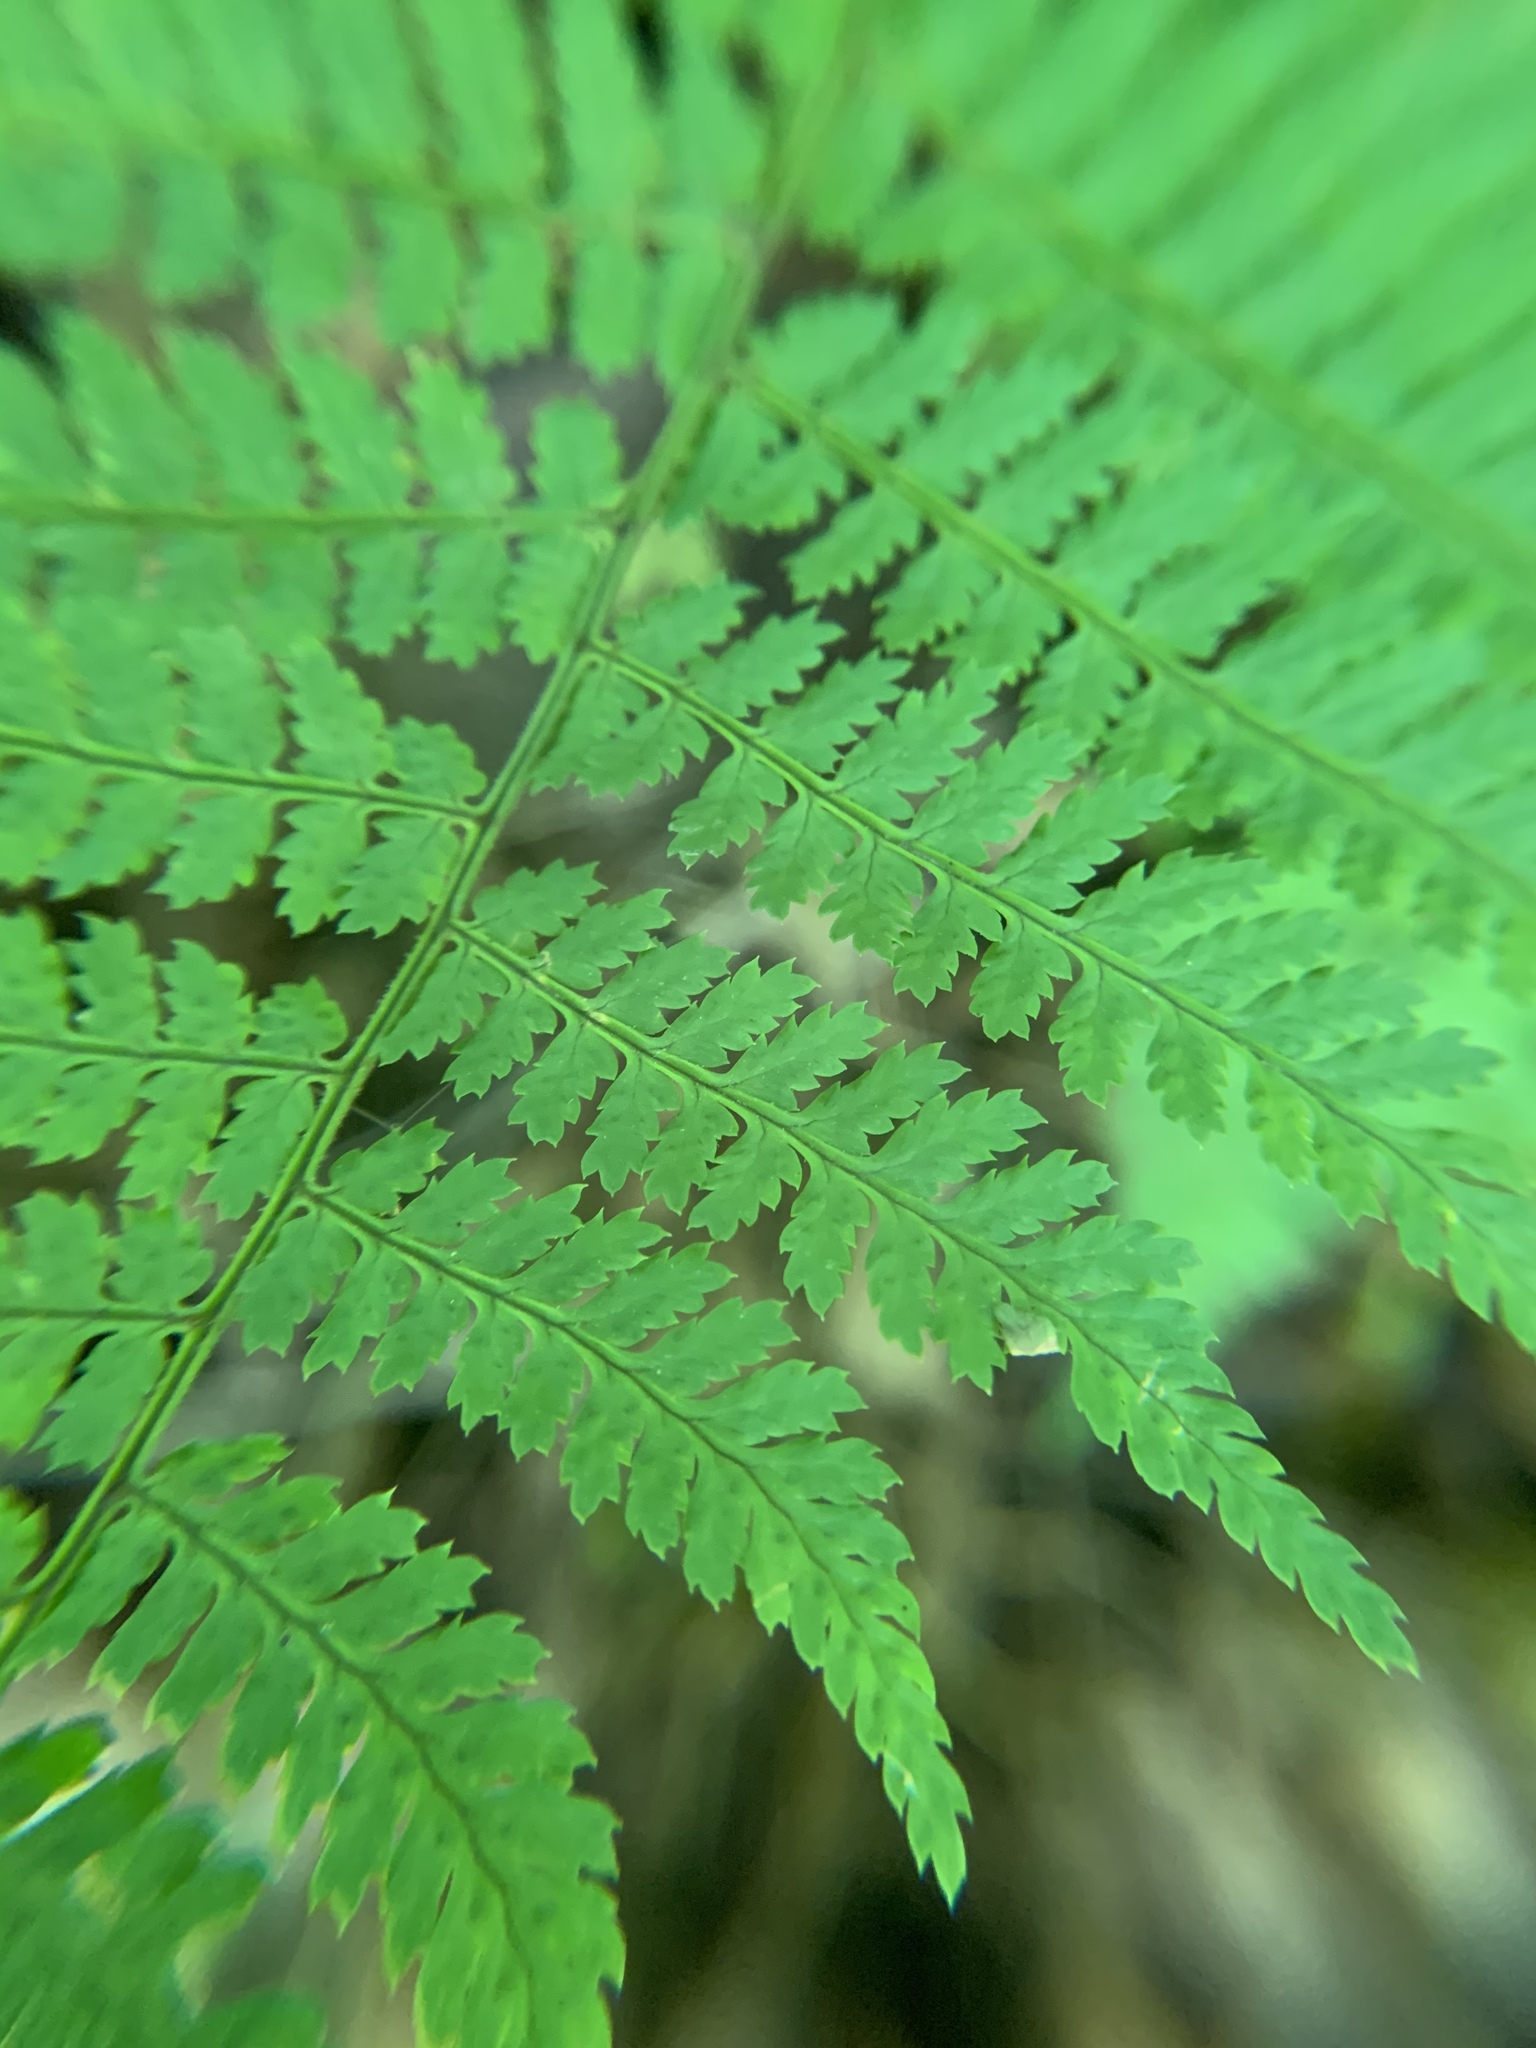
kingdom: Plantae
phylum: Tracheophyta
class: Polypodiopsida
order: Polypodiales
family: Dryopteridaceae
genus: Dryopteris
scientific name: Dryopteris intermedia
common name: Evergreen wood fern
